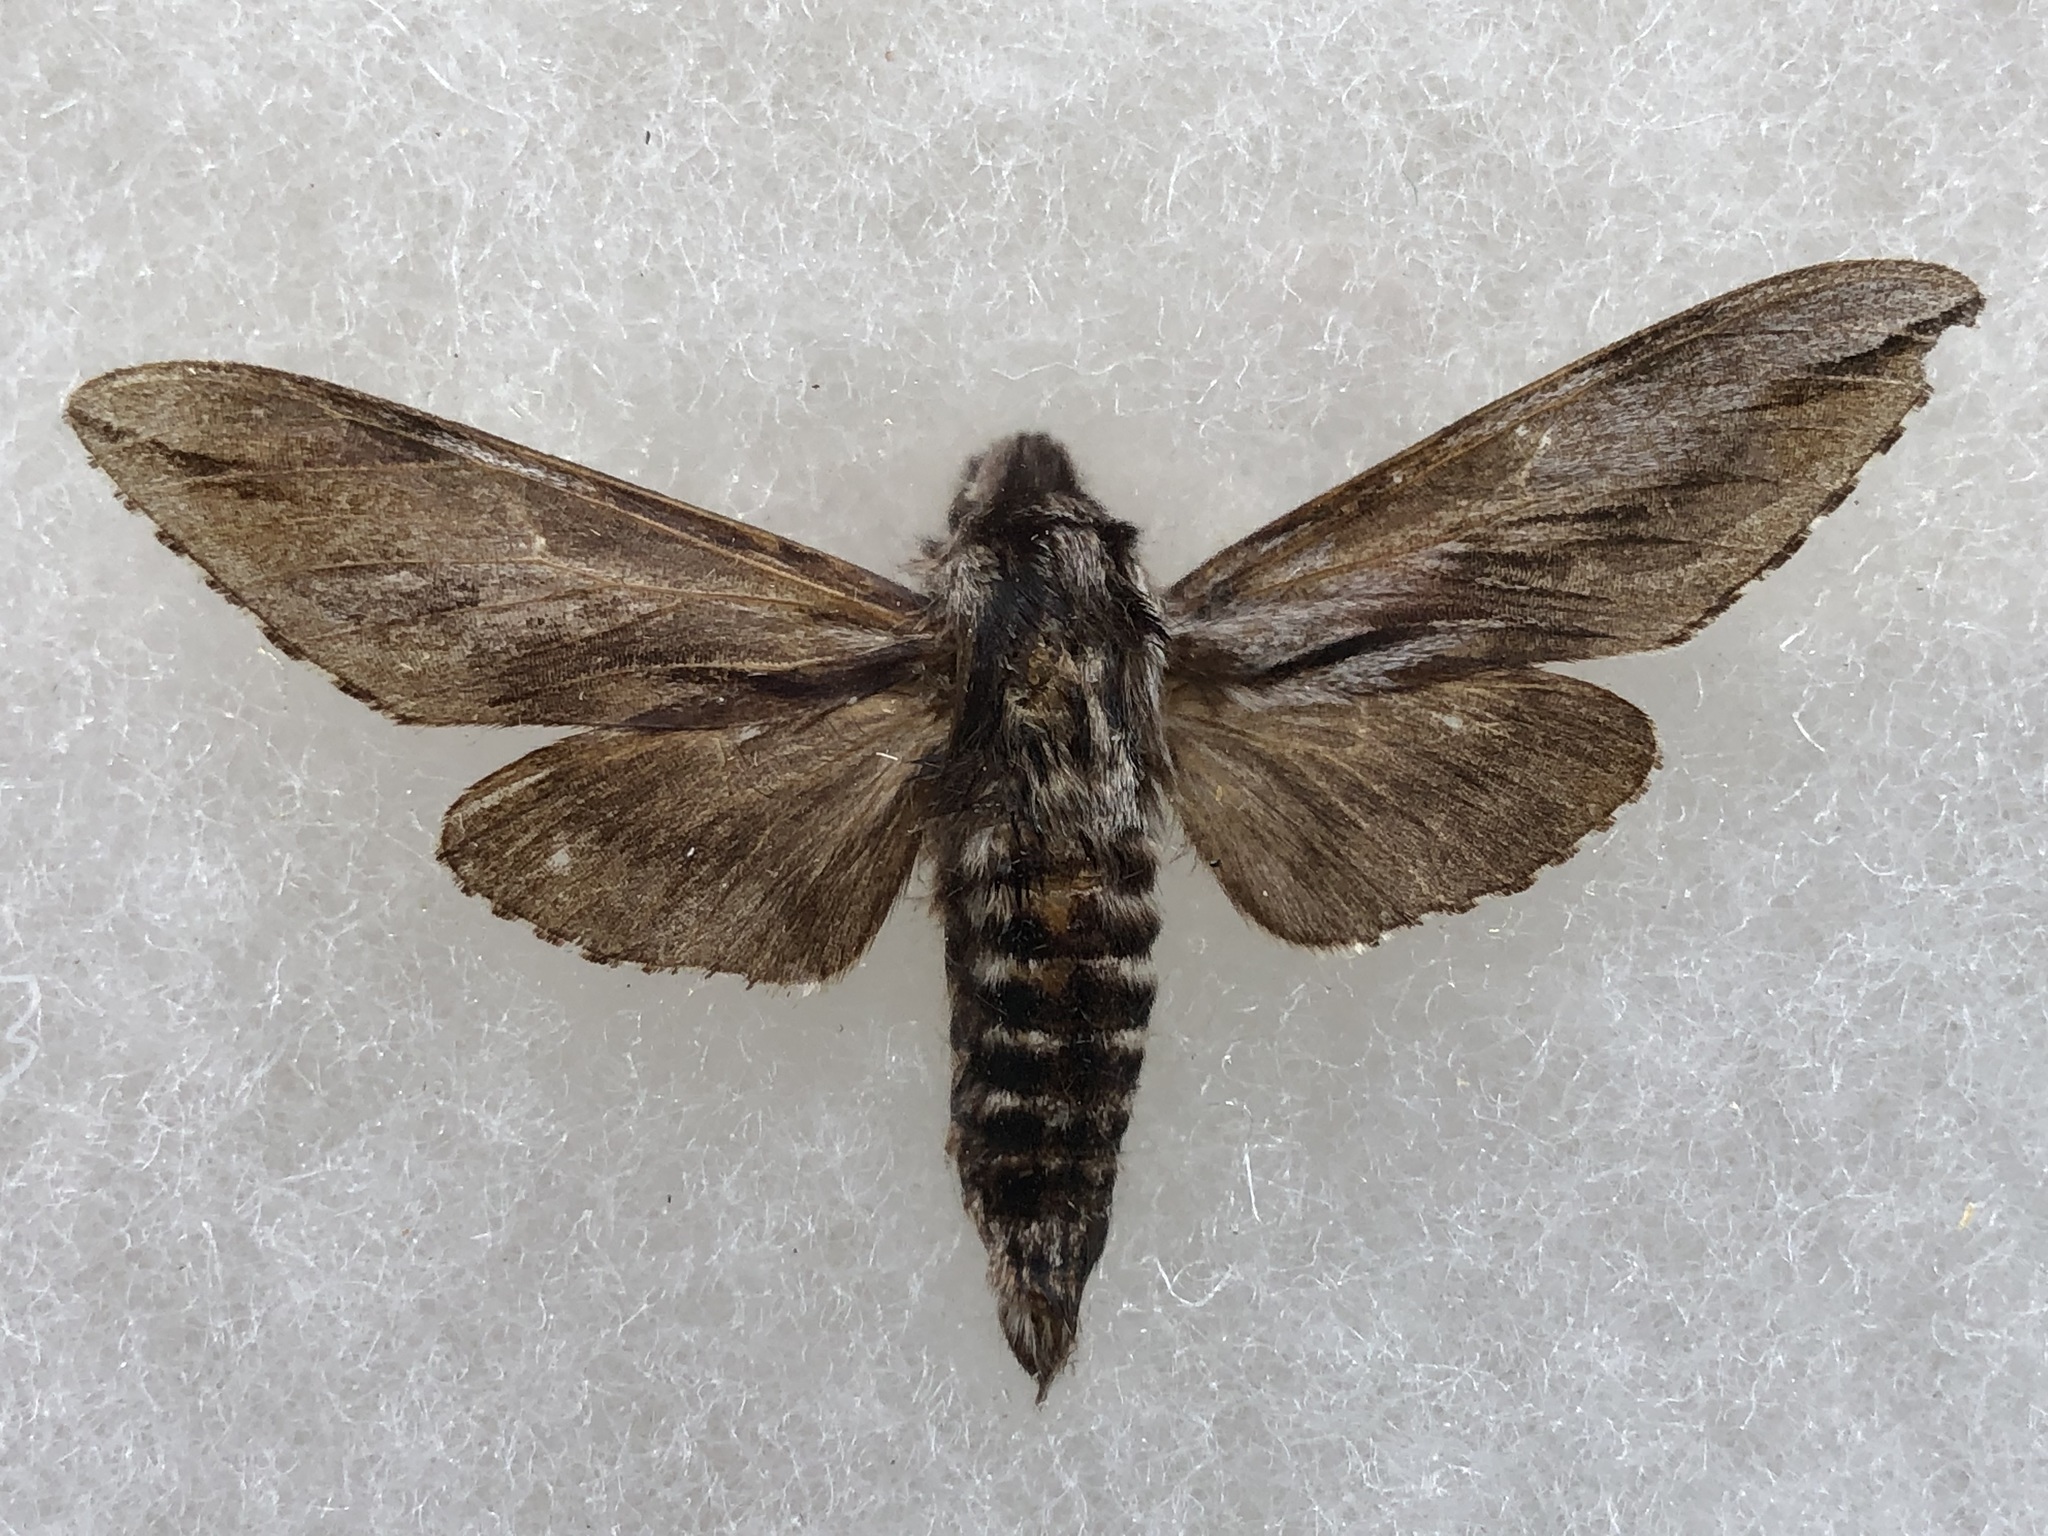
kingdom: Animalia
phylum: Arthropoda
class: Insecta
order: Lepidoptera
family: Sphingidae
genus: Sphinx
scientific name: Sphinx dollii
